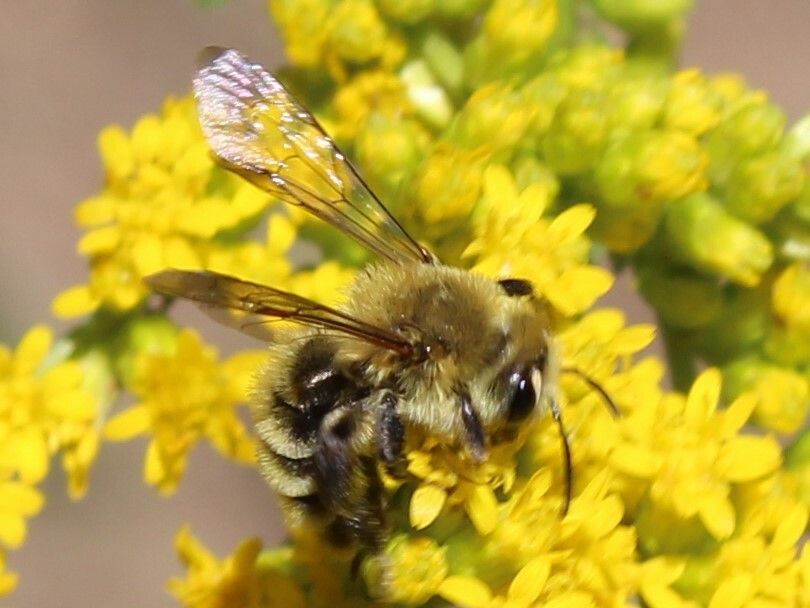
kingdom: Animalia
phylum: Arthropoda
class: Insecta
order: Hymenoptera
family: Andrenidae
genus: Andrena
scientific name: Andrena hirticincta
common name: Hairy-banded mining bee
